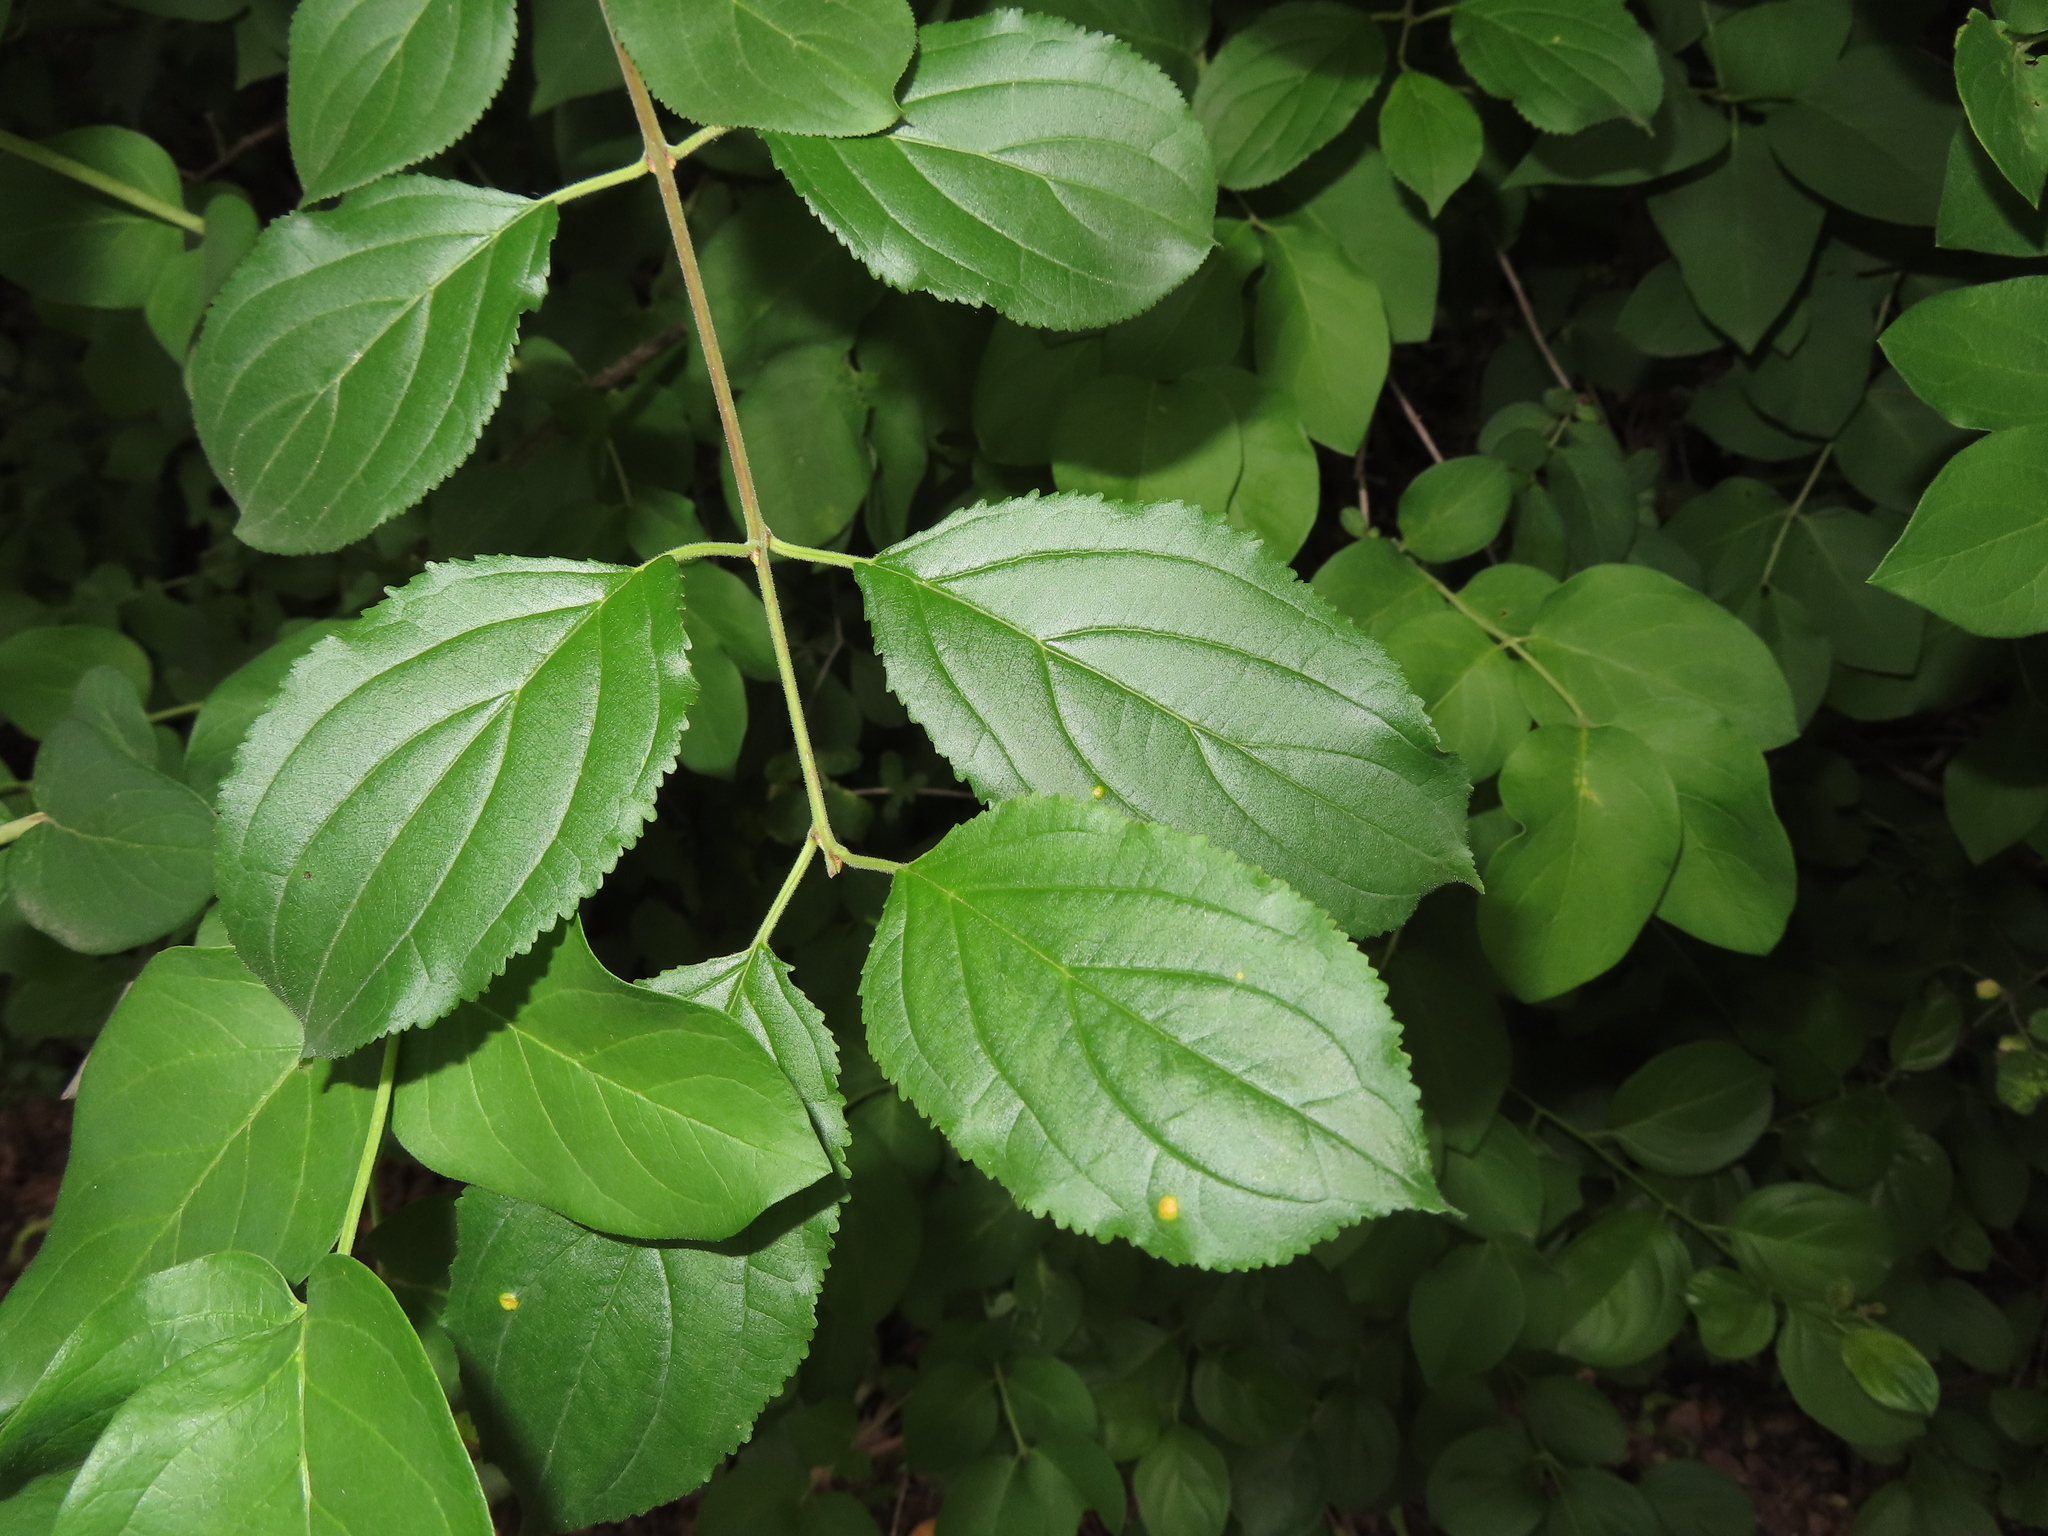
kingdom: Plantae
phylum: Tracheophyta
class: Magnoliopsida
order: Rosales
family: Rhamnaceae
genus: Rhamnus
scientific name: Rhamnus cathartica
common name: Common buckthorn
